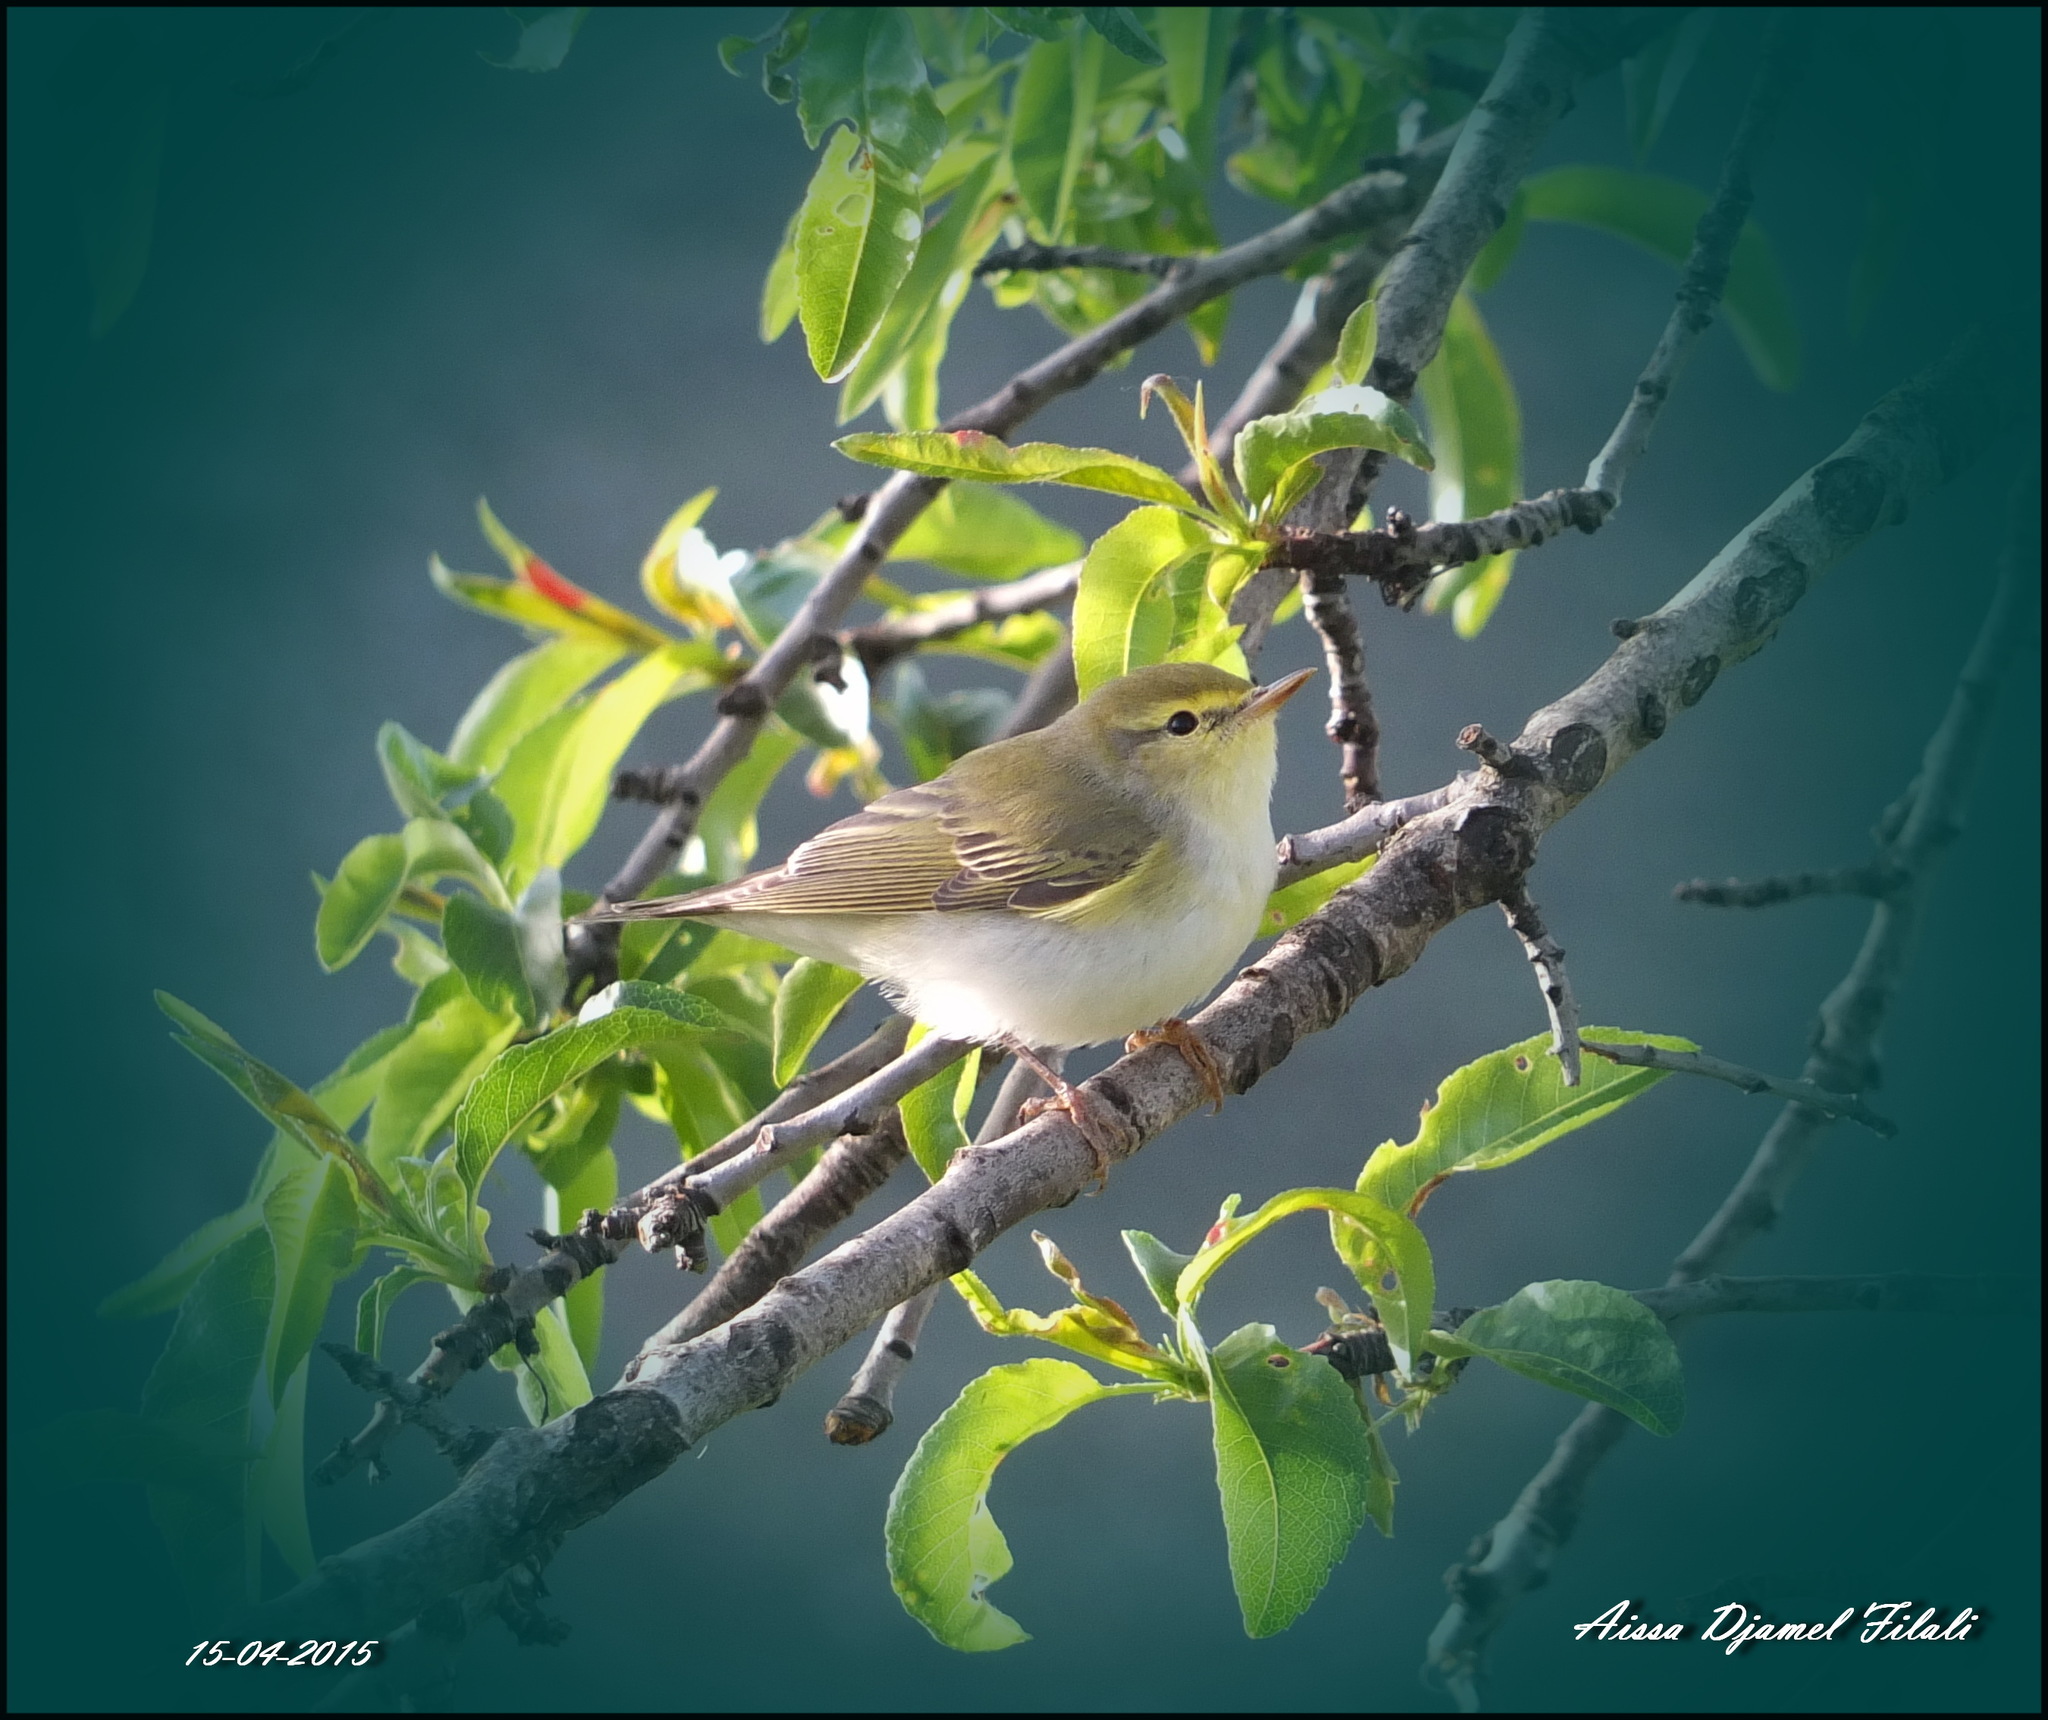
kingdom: Animalia
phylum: Chordata
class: Aves
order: Passeriformes
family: Phylloscopidae
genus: Phylloscopus
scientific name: Phylloscopus sibillatrix
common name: Wood warbler
